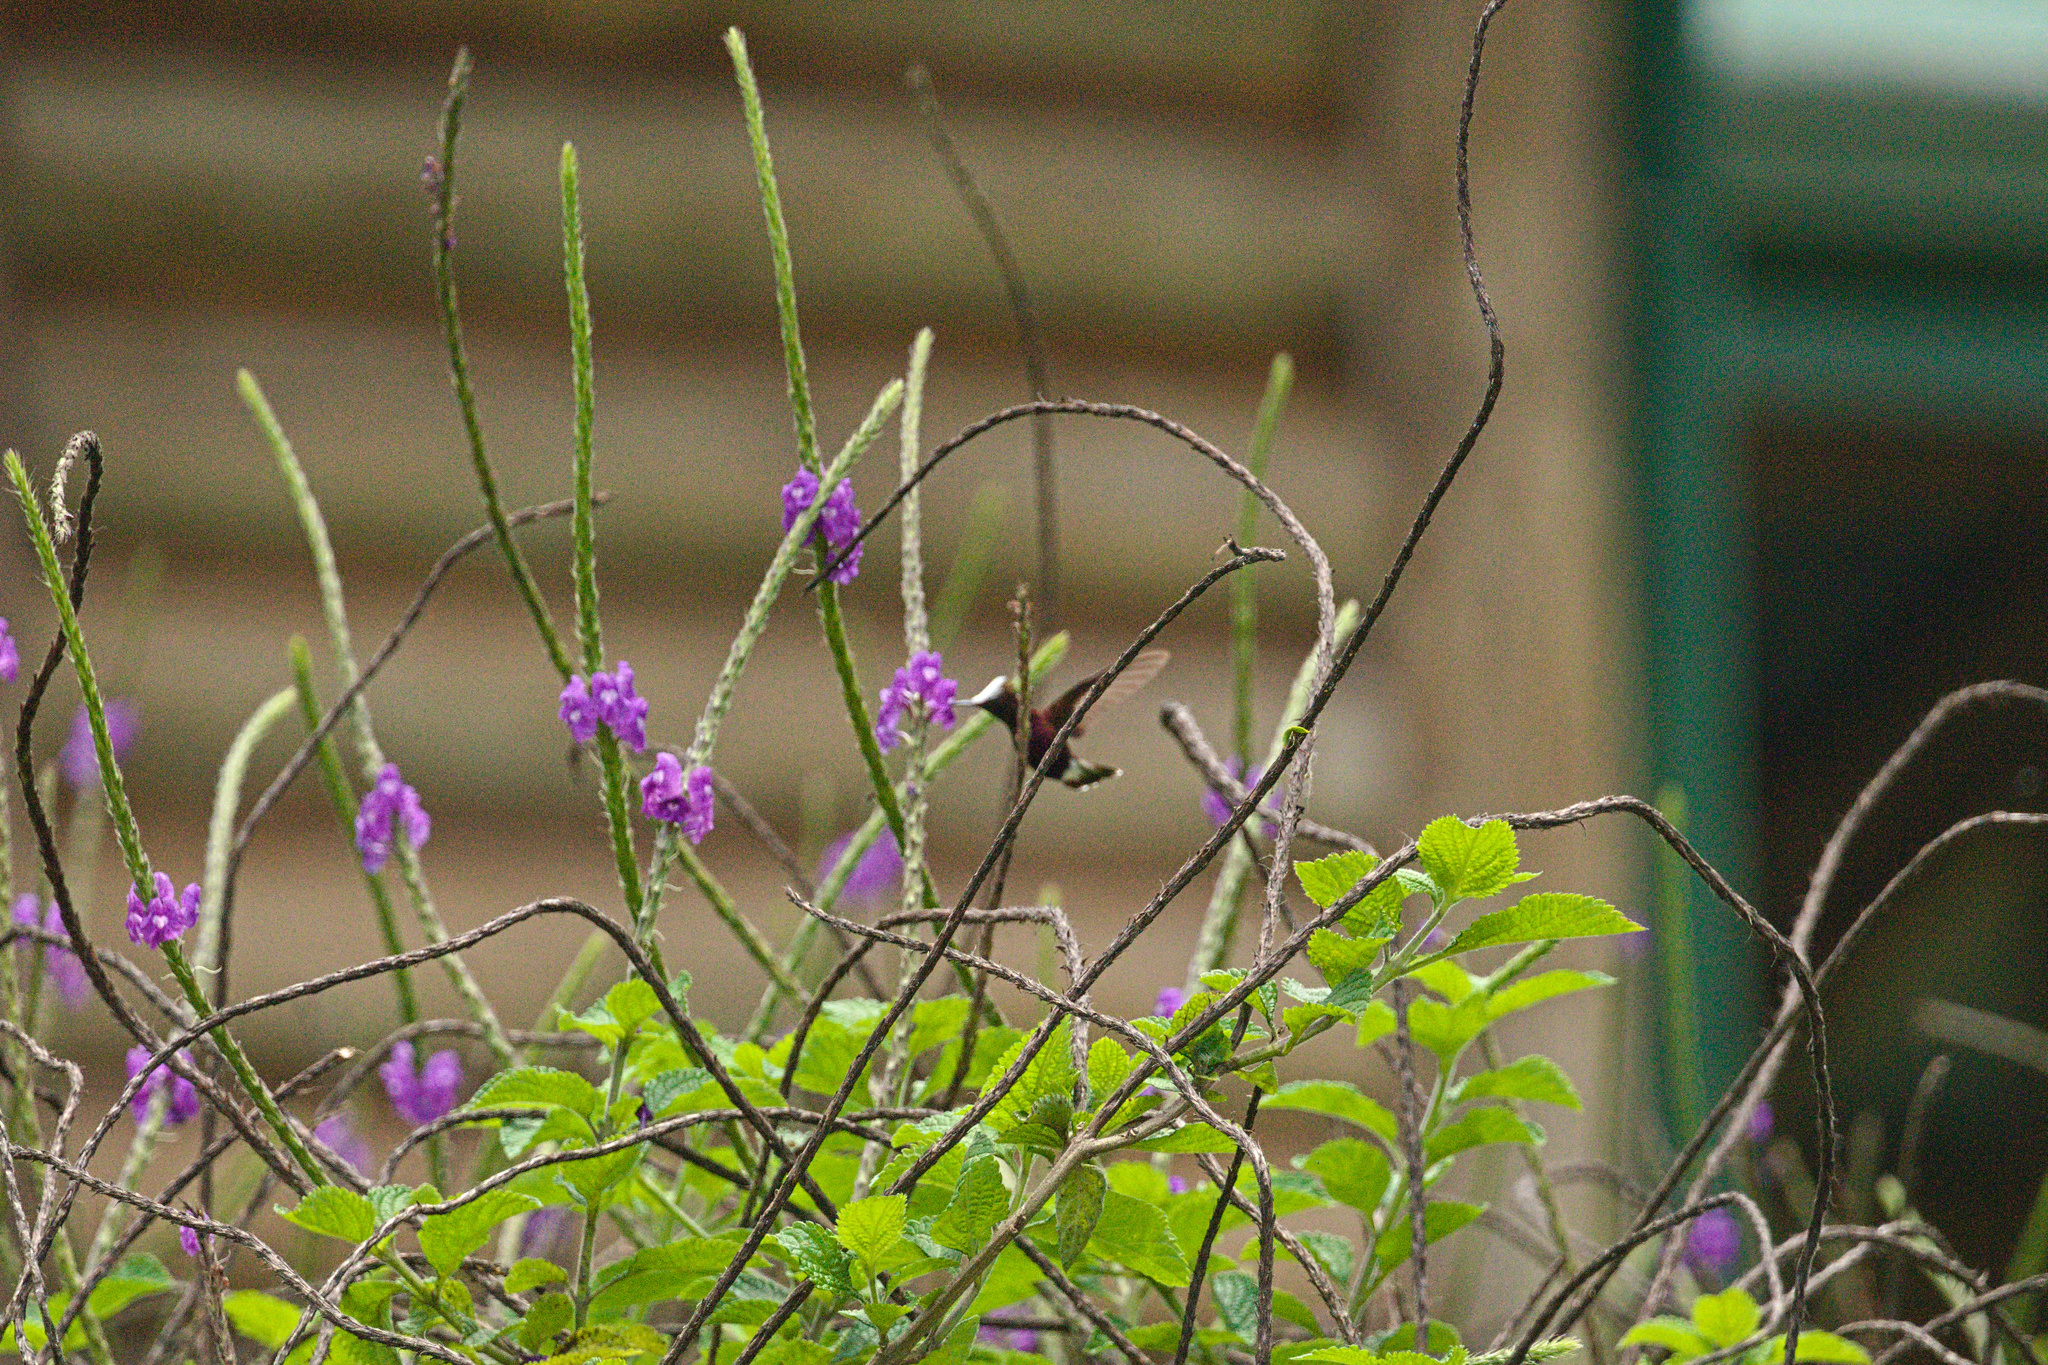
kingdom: Animalia
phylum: Chordata
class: Aves
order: Apodiformes
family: Trochilidae
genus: Microchera
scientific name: Microchera albocoronata
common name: Snowcap
